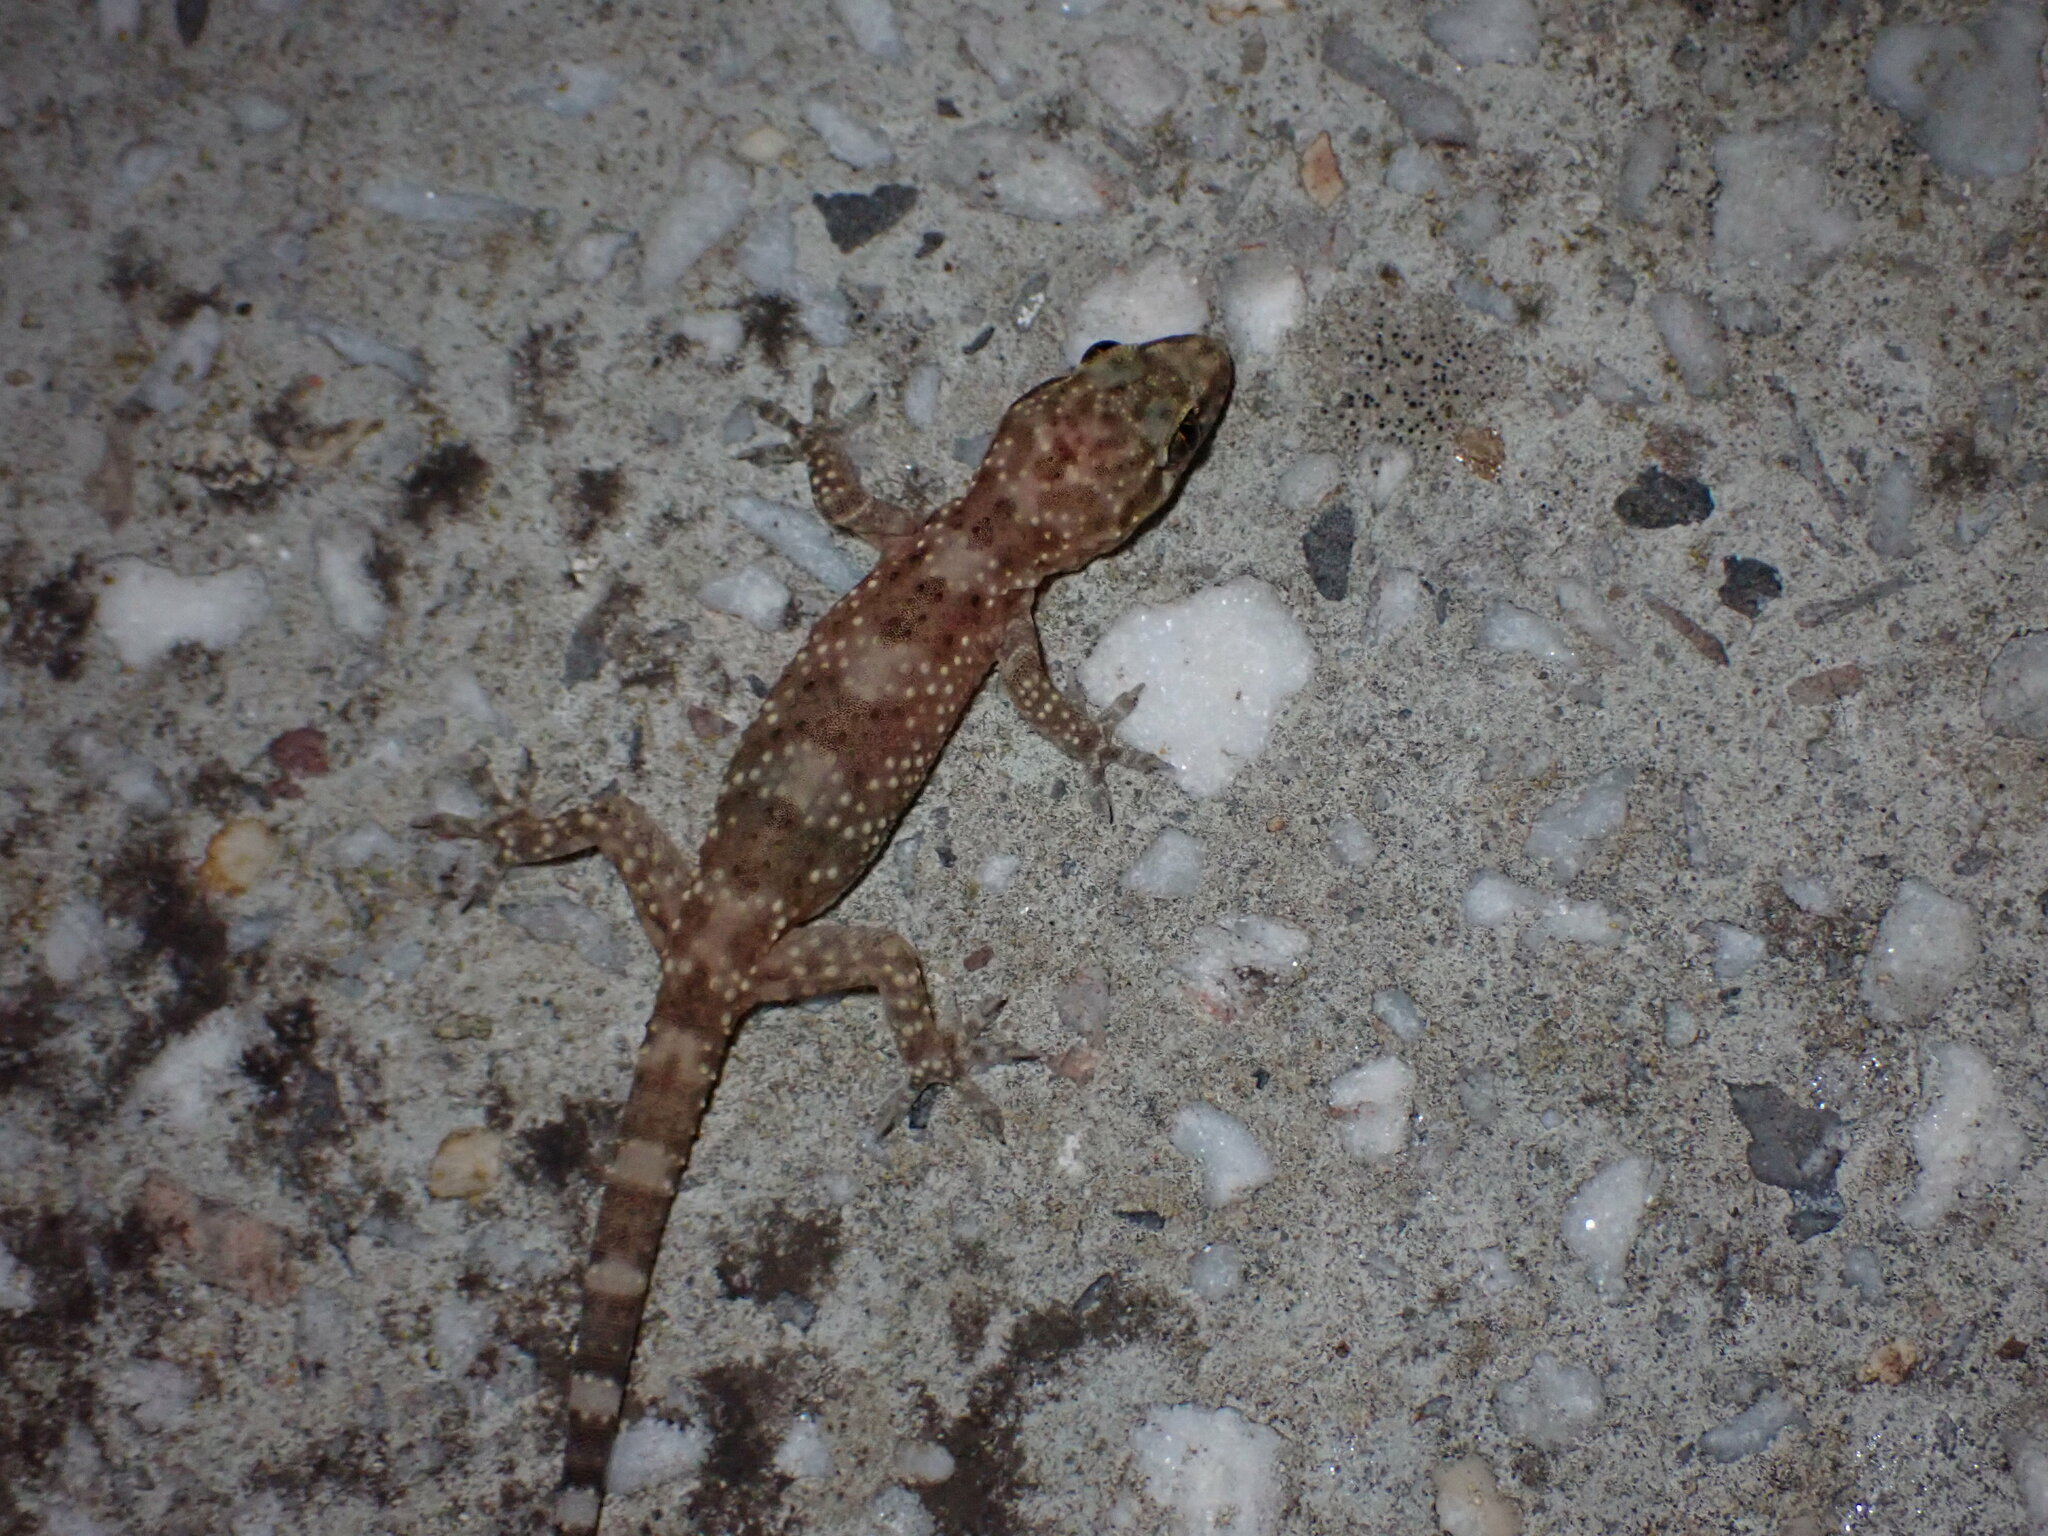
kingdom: Animalia
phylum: Chordata
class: Squamata
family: Gekkonidae
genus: Hemidactylus
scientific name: Hemidactylus turcicus
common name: Turkish gecko
